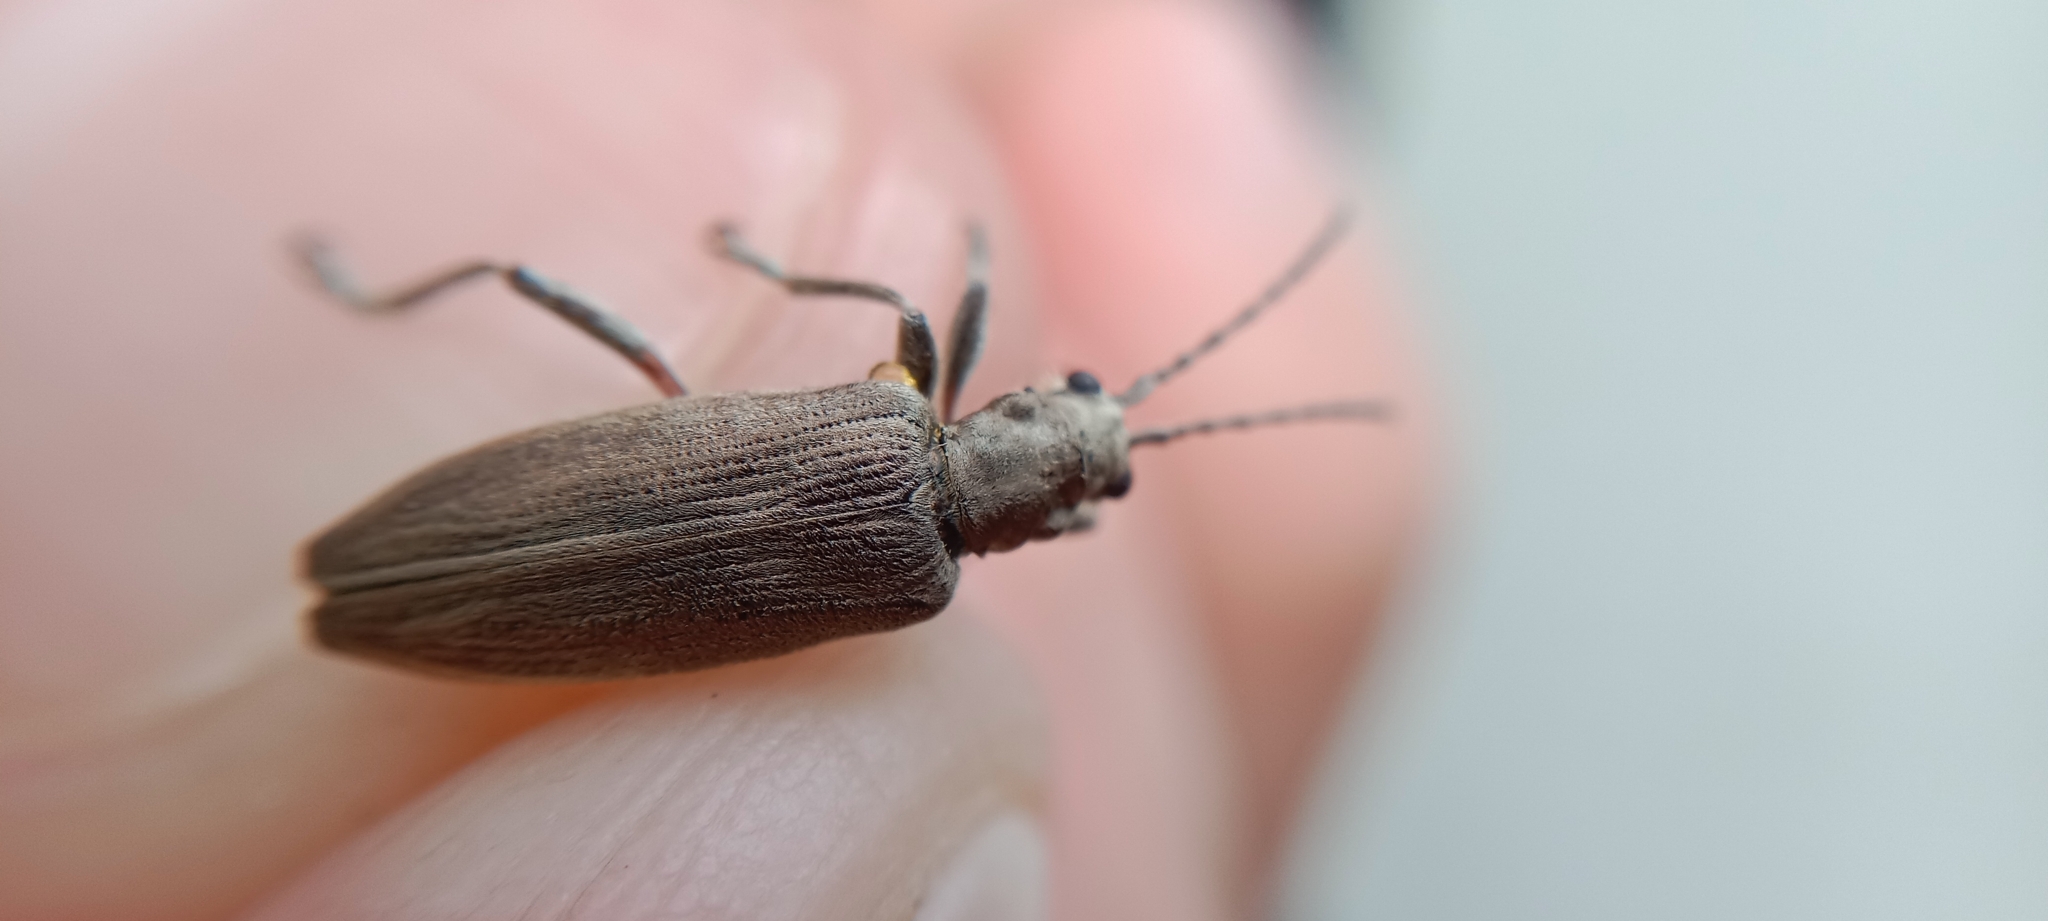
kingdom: Animalia
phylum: Arthropoda
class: Insecta
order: Coleoptera
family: Chrysomelidae
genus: Donacia
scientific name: Donacia cinerea
